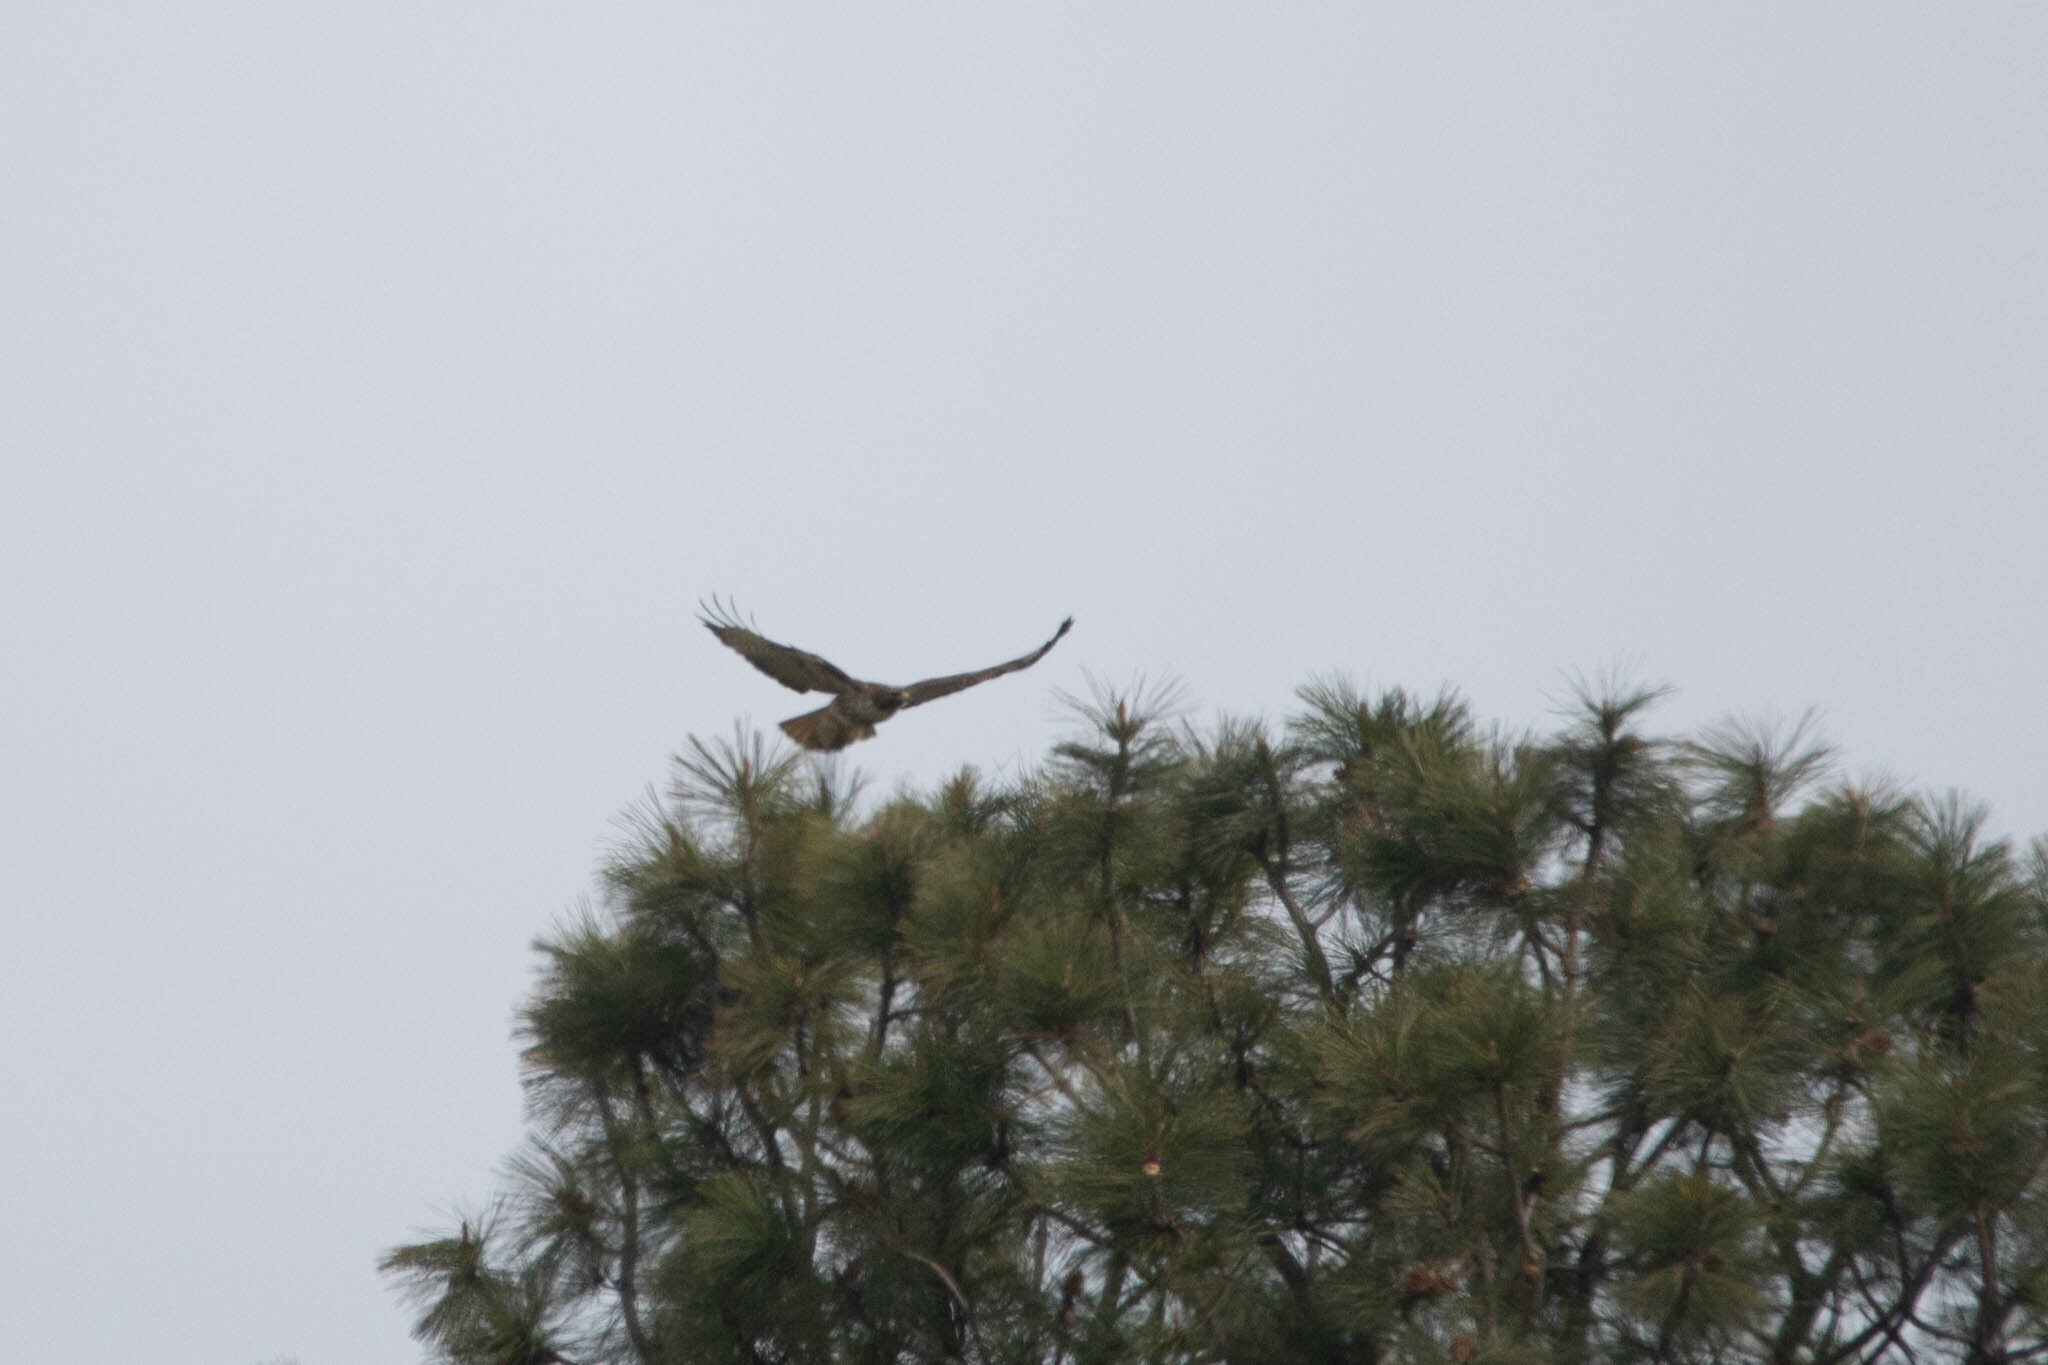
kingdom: Animalia
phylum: Chordata
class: Aves
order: Accipitriformes
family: Accipitridae
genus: Buteo
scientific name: Buteo jamaicensis
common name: Red-tailed hawk
